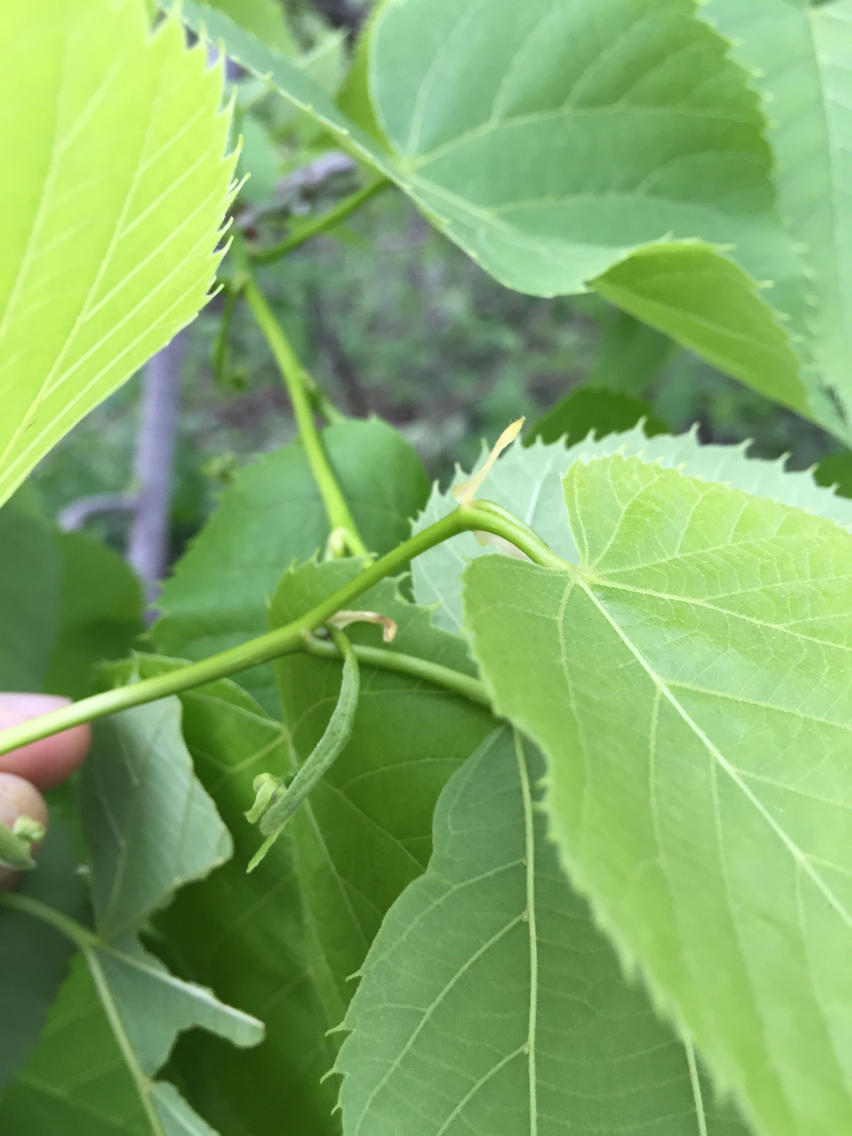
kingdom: Plantae
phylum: Tracheophyta
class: Magnoliopsida
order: Malvales
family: Malvaceae
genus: Tilia
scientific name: Tilia americana
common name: Basswood
